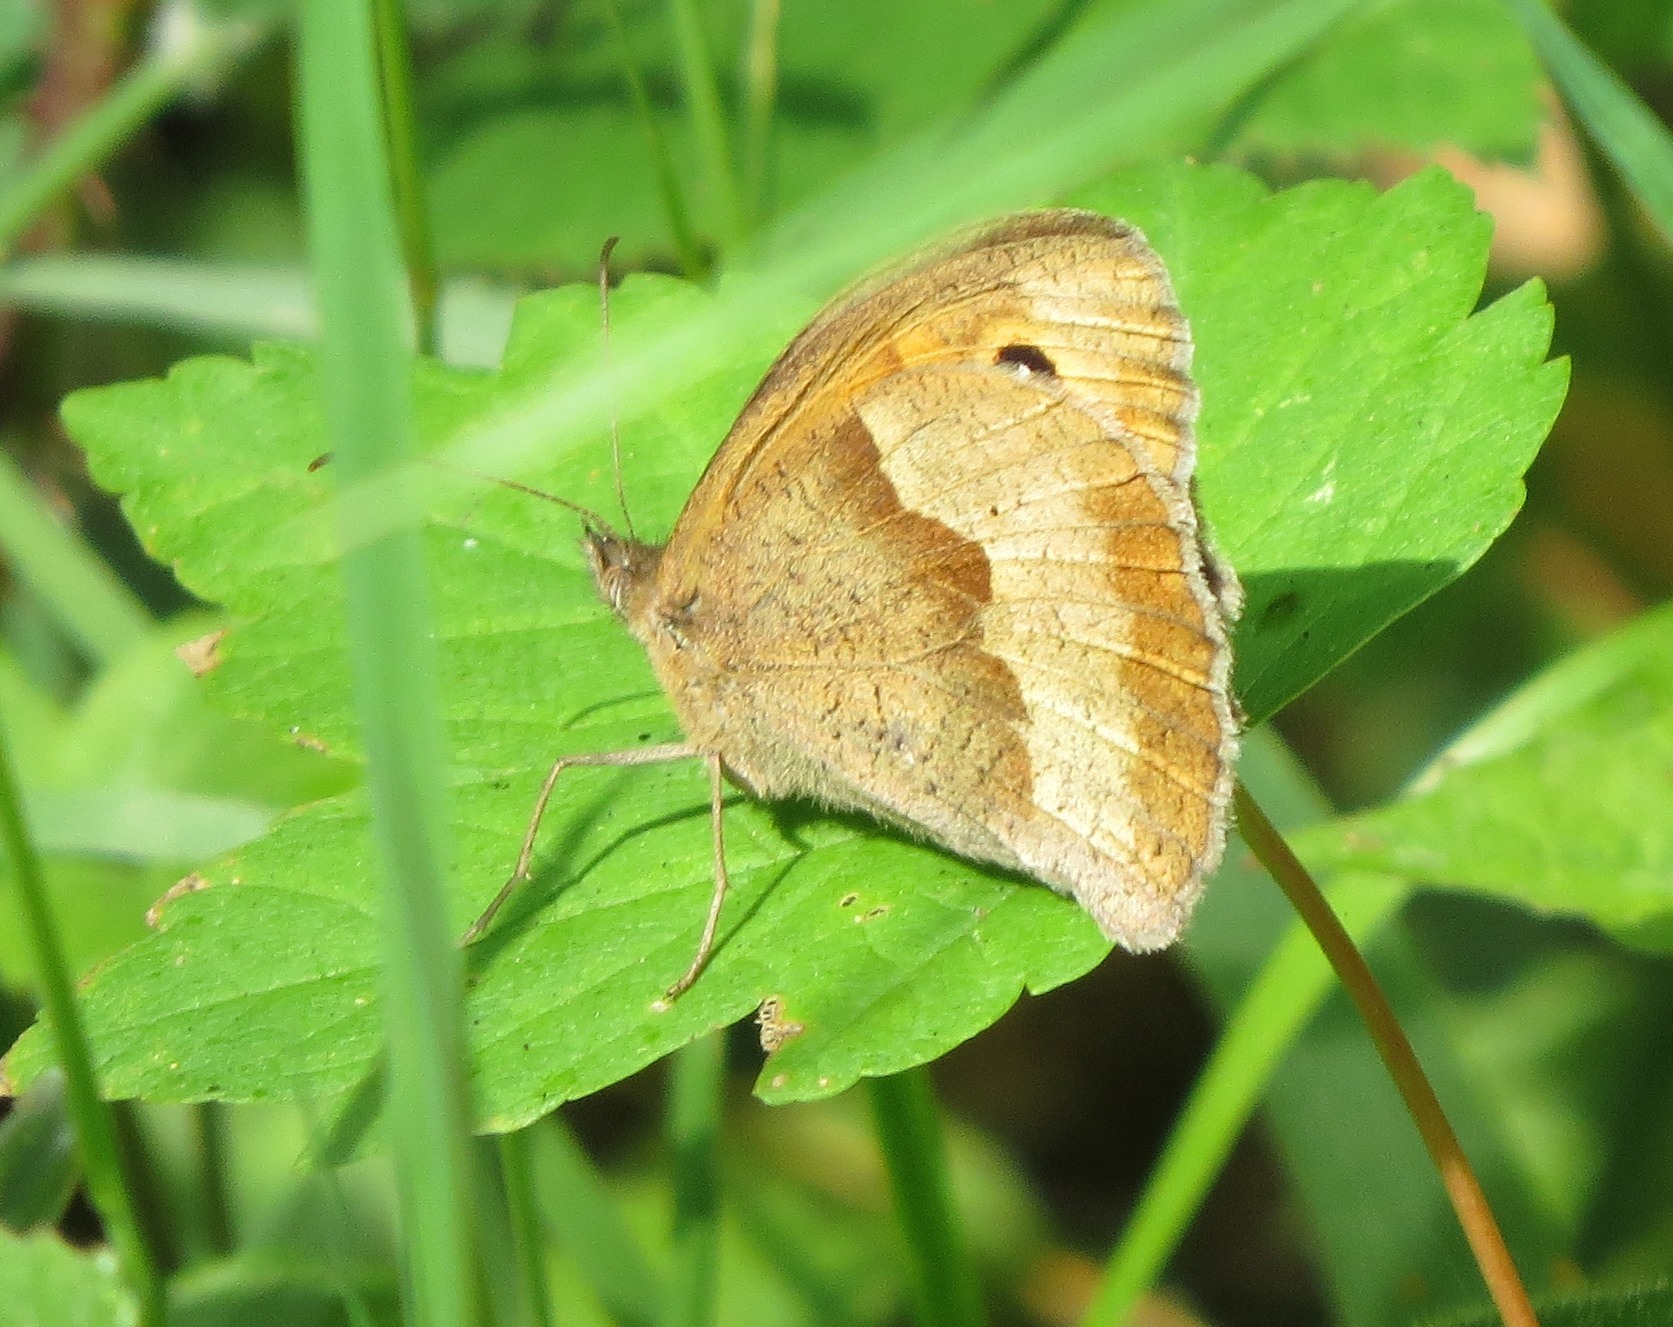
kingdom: Animalia
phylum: Arthropoda
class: Insecta
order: Lepidoptera
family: Nymphalidae
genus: Maniola
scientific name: Maniola jurtina
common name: Meadow brown
